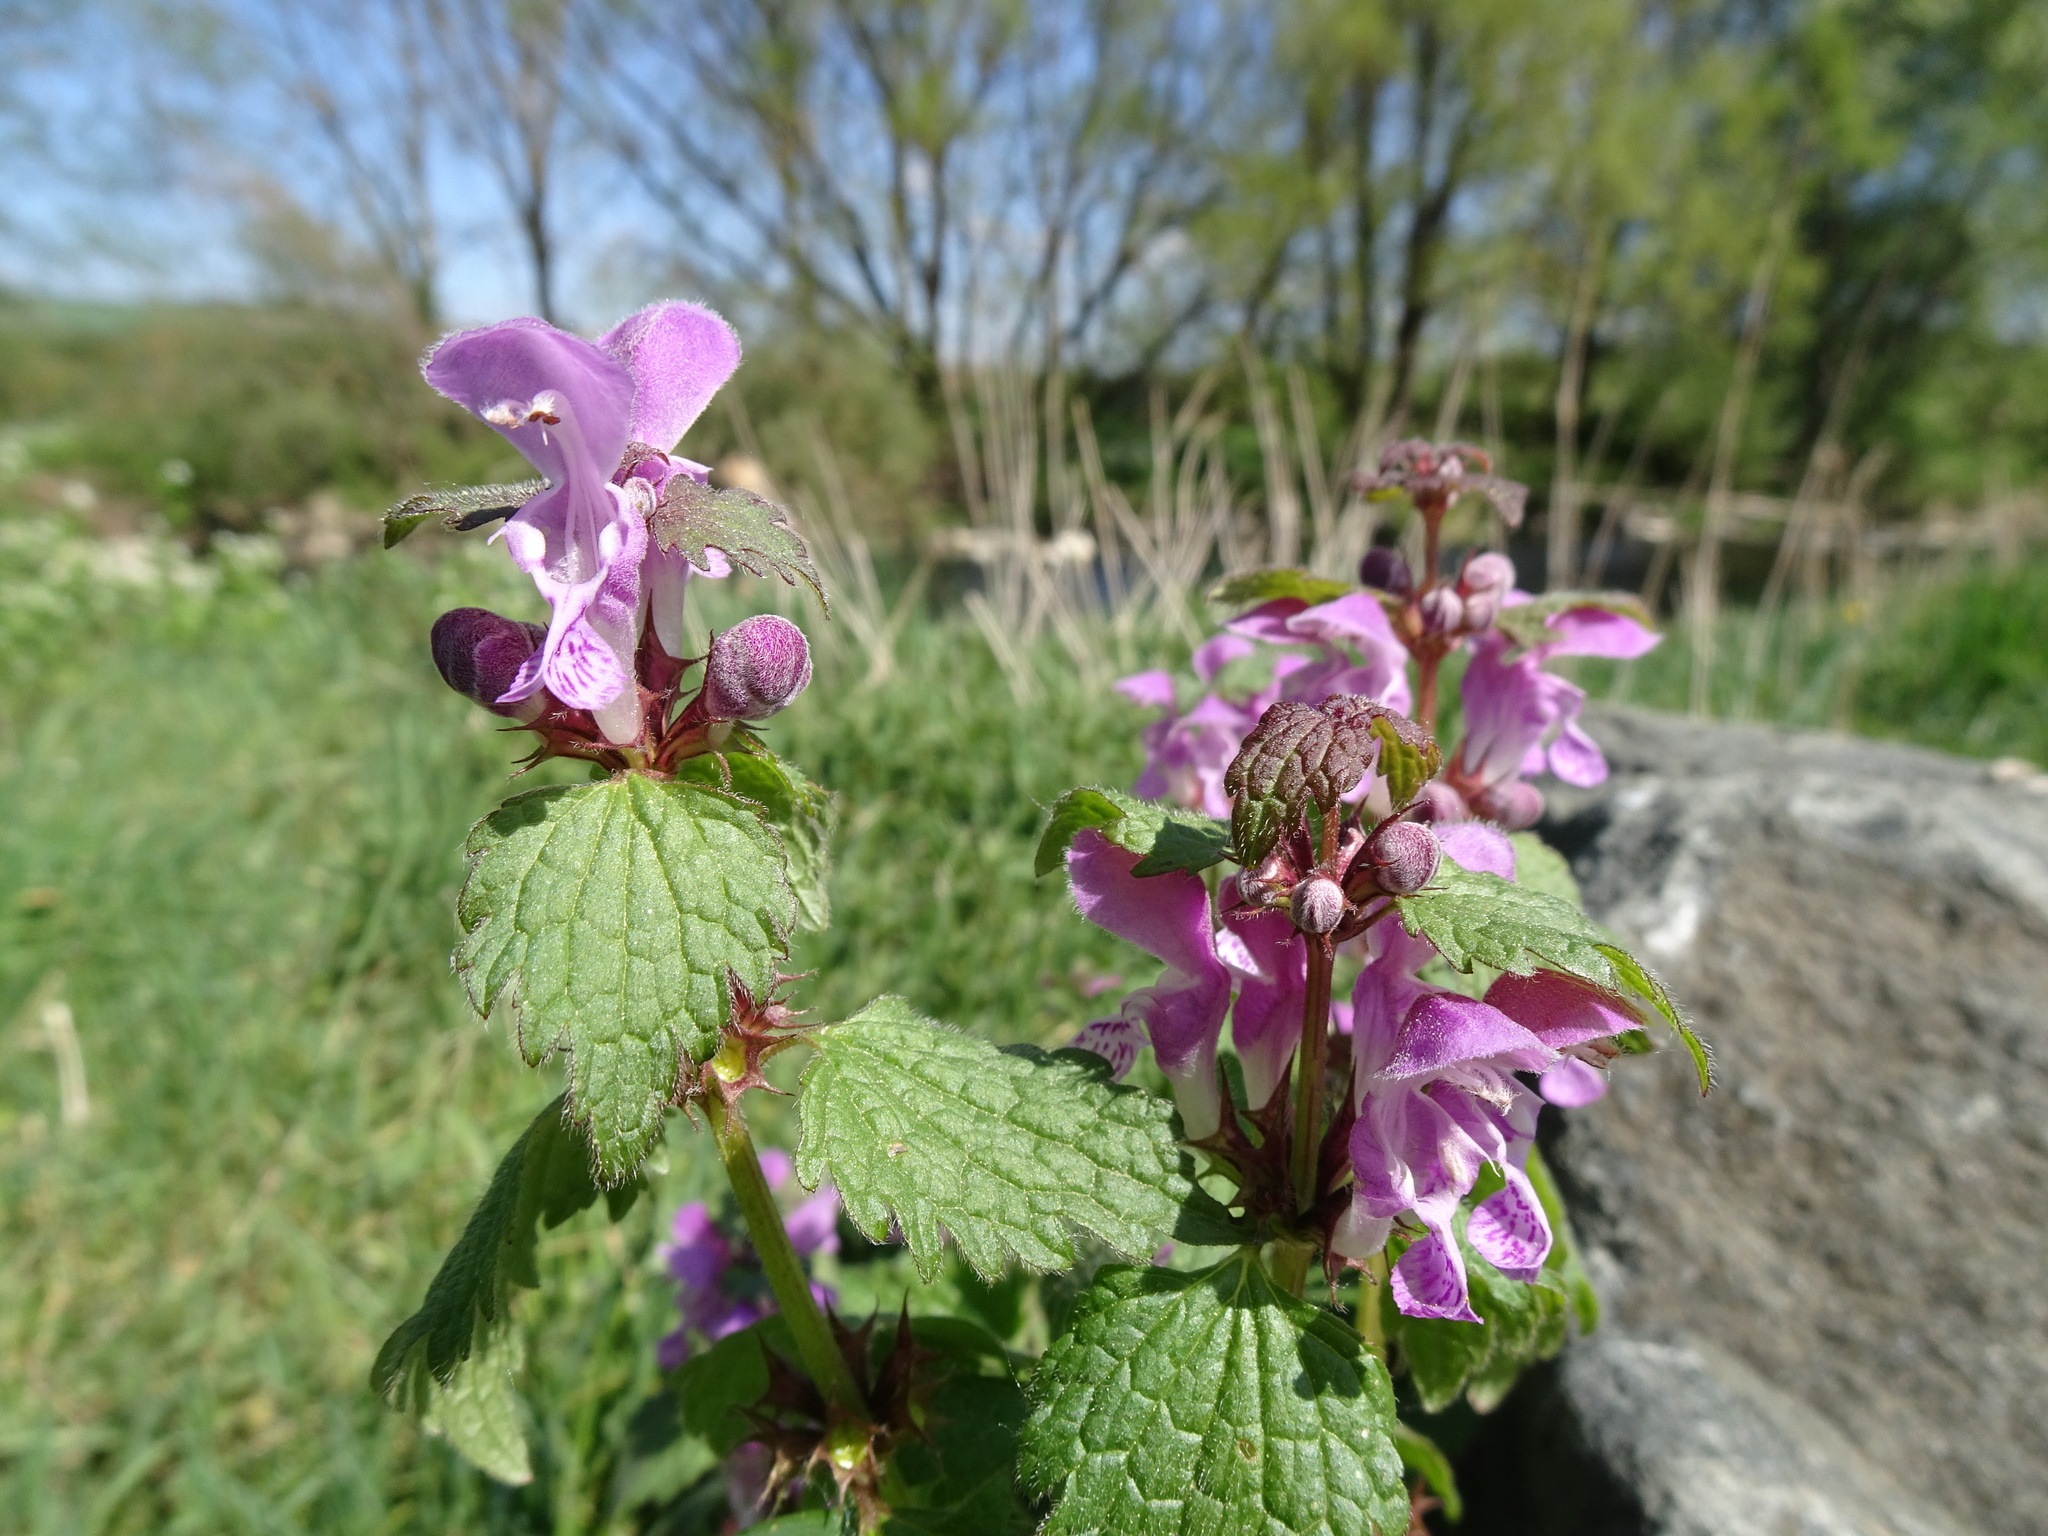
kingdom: Plantae
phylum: Tracheophyta
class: Magnoliopsida
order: Lamiales
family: Lamiaceae
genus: Lamium
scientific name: Lamium maculatum
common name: Spotted dead-nettle
